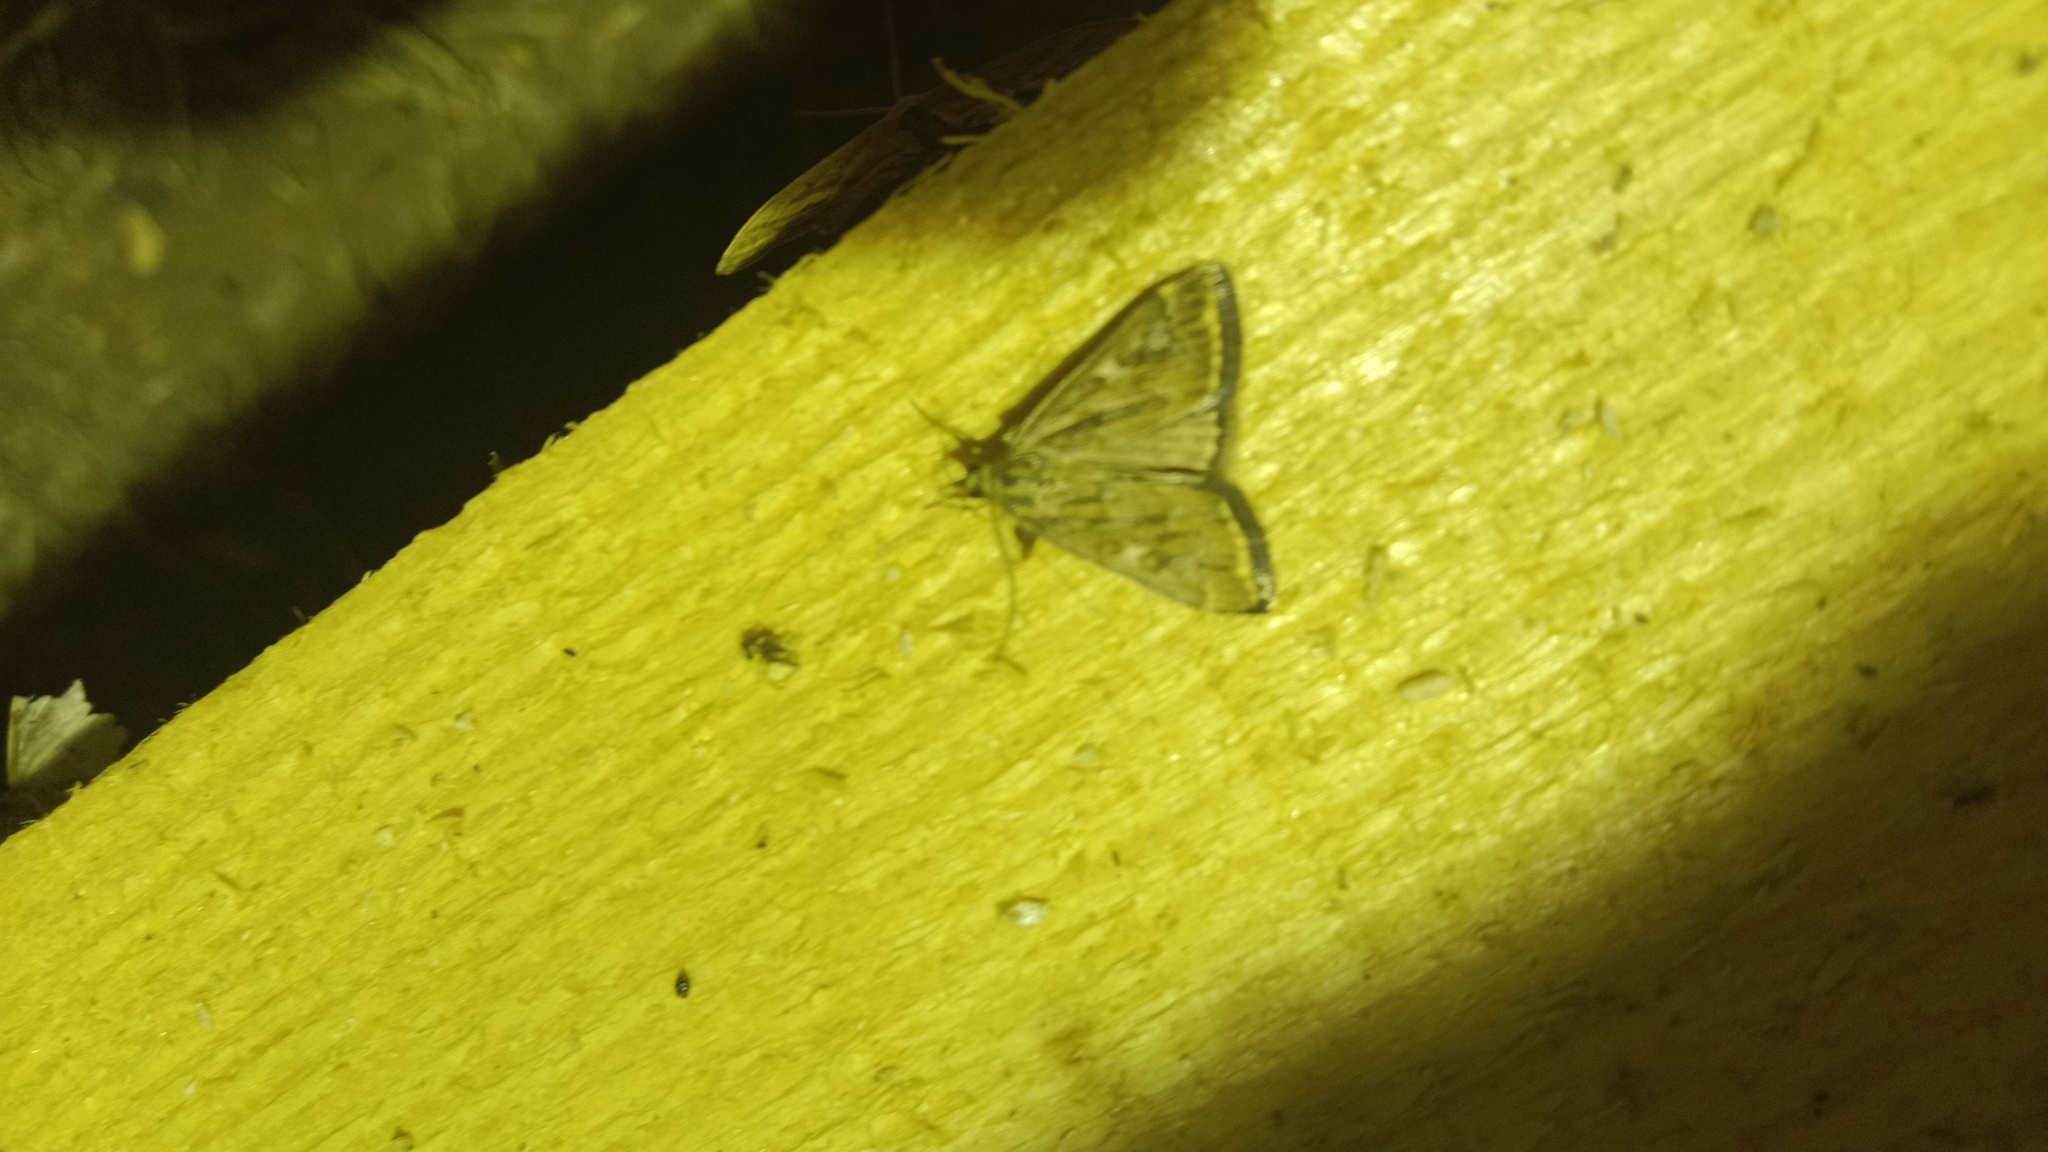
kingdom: Animalia
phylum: Arthropoda
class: Insecta
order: Lepidoptera
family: Crambidae
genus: Loxostege
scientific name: Loxostege sticticalis
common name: Crambid moth
